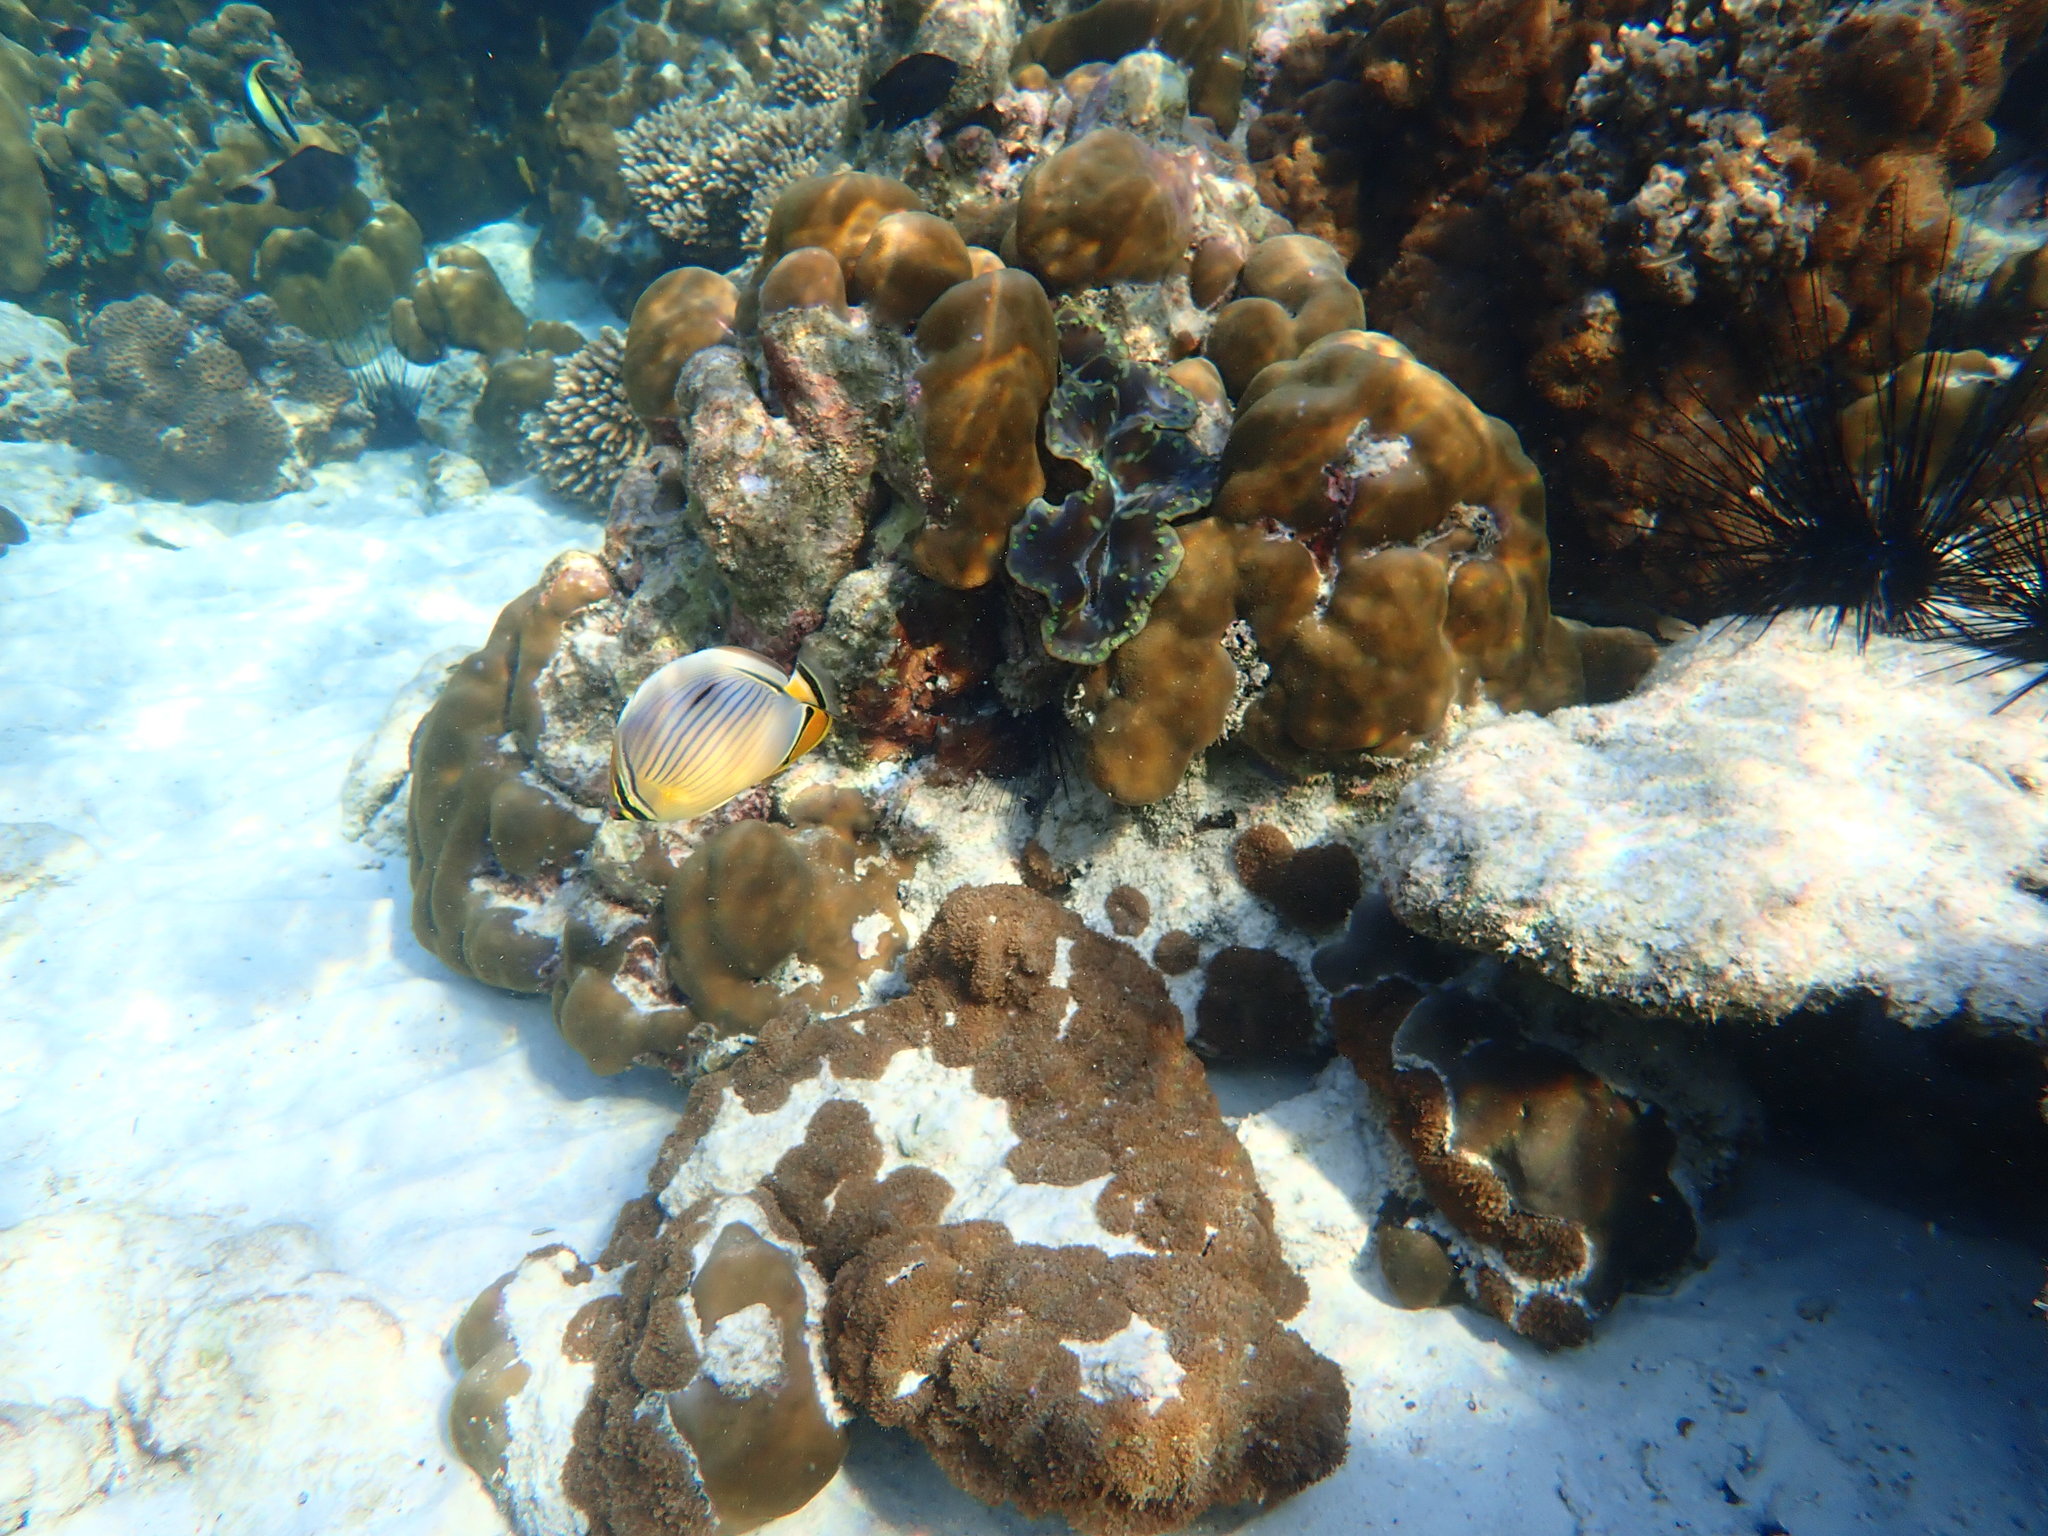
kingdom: Animalia
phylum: Chordata
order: Perciformes
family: Chaetodontidae
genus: Chaetodon
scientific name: Chaetodon trifasciatus
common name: Redfin butterflyfish
